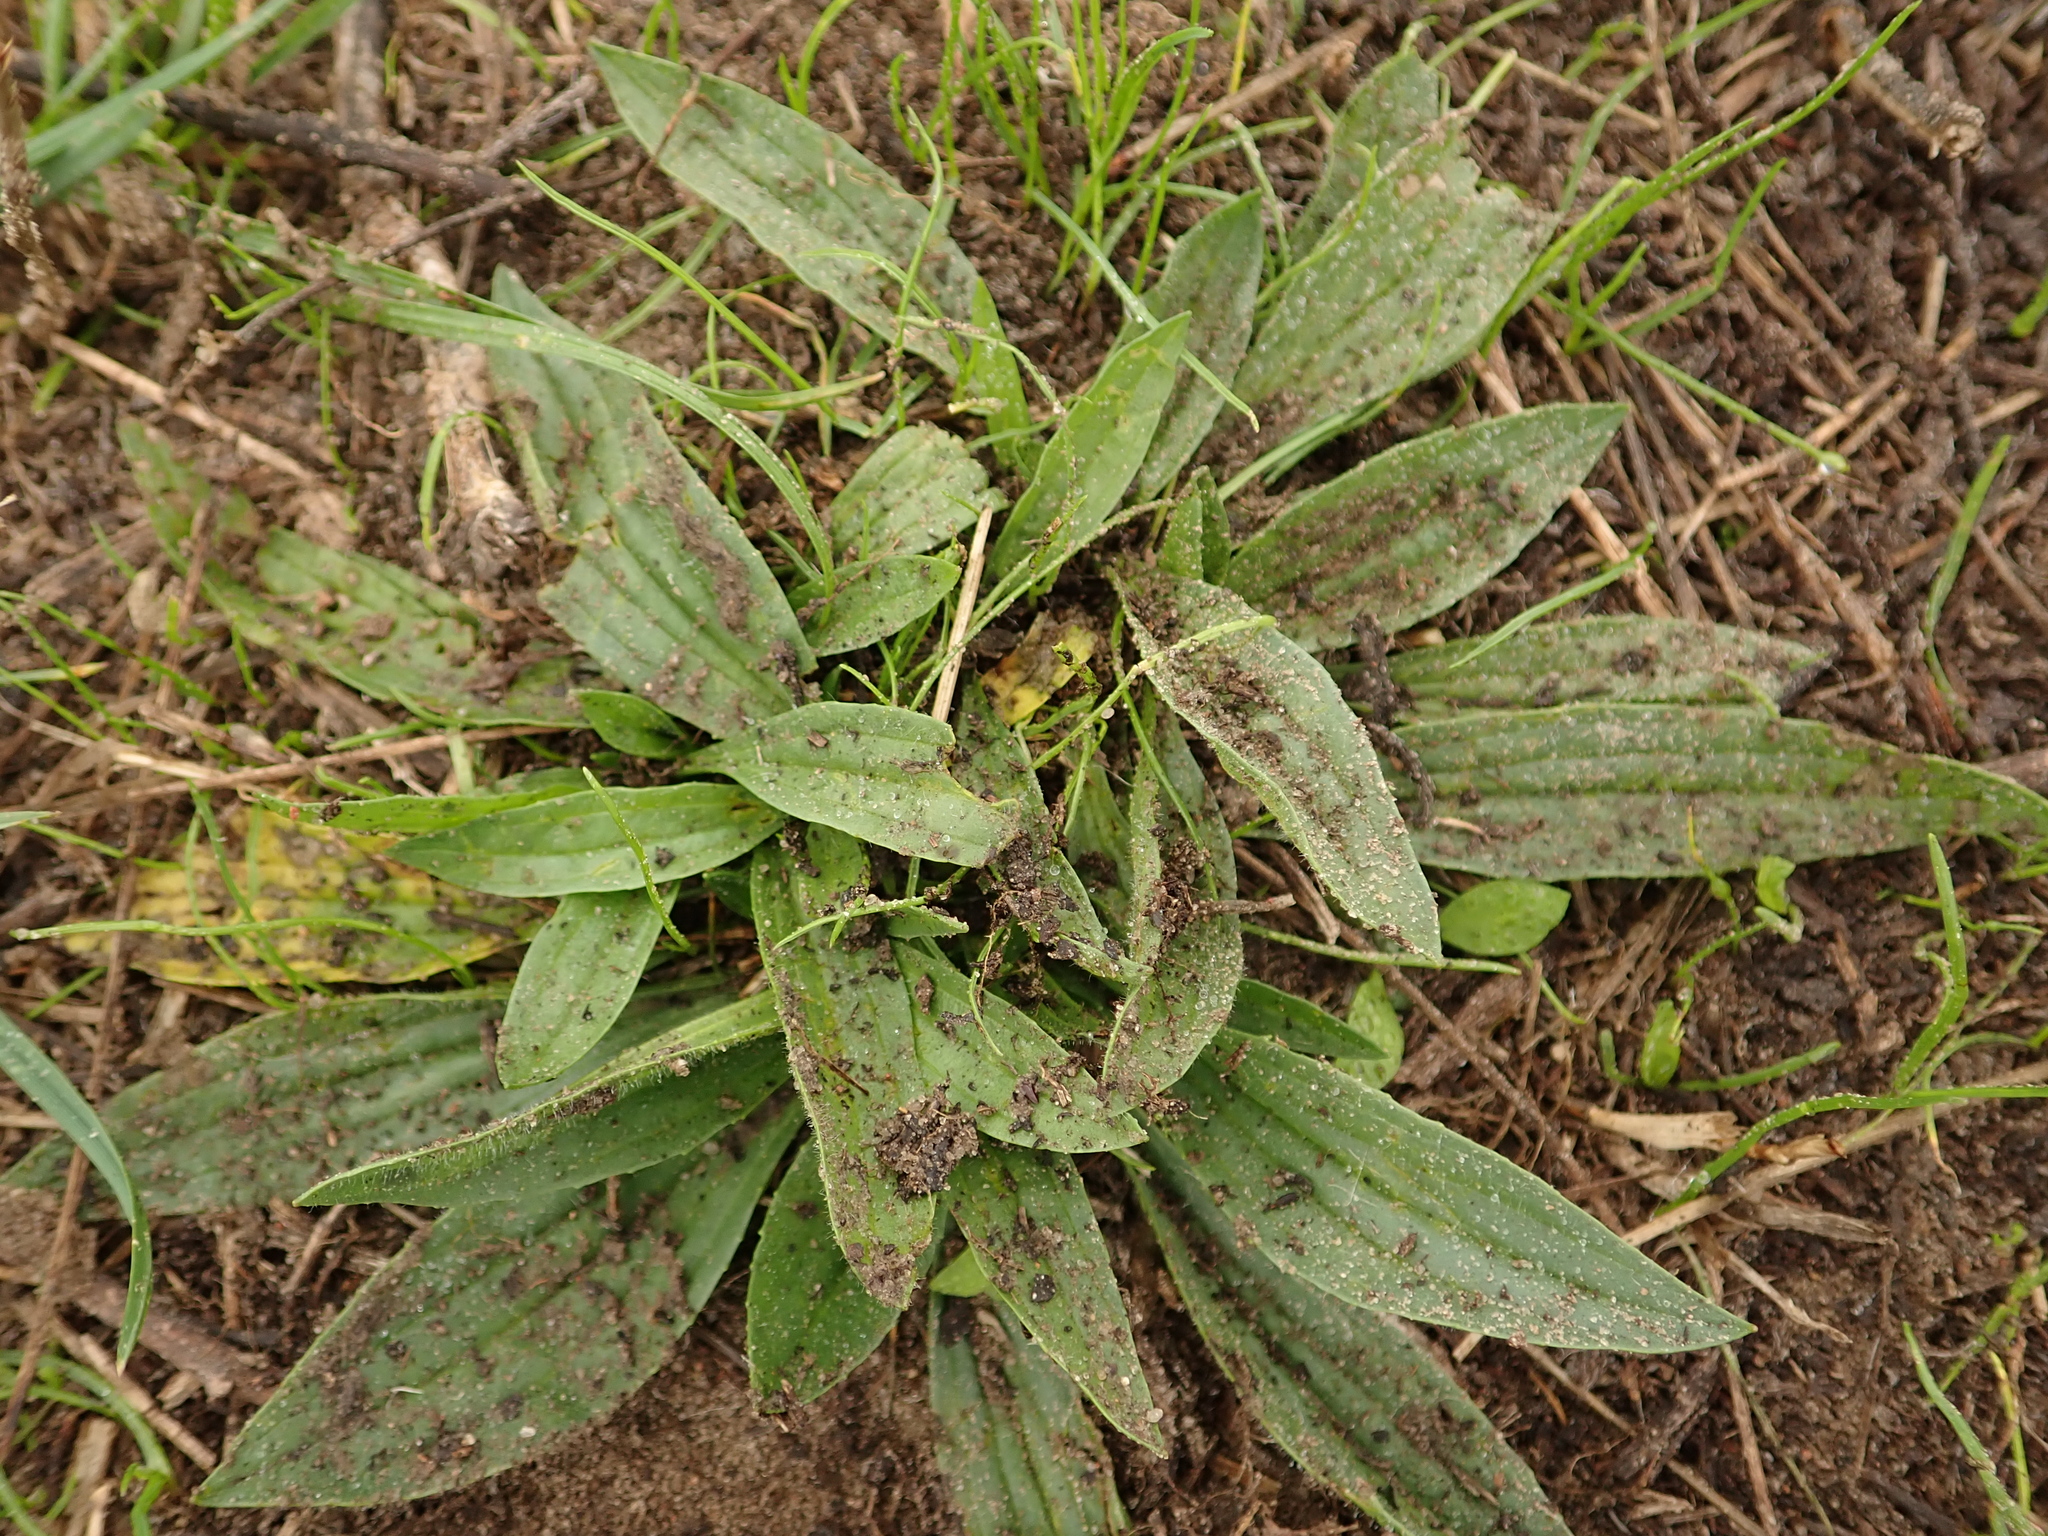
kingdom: Plantae
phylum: Tracheophyta
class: Magnoliopsida
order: Lamiales
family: Plantaginaceae
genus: Plantago
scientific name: Plantago lanceolata
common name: Ribwort plantain
